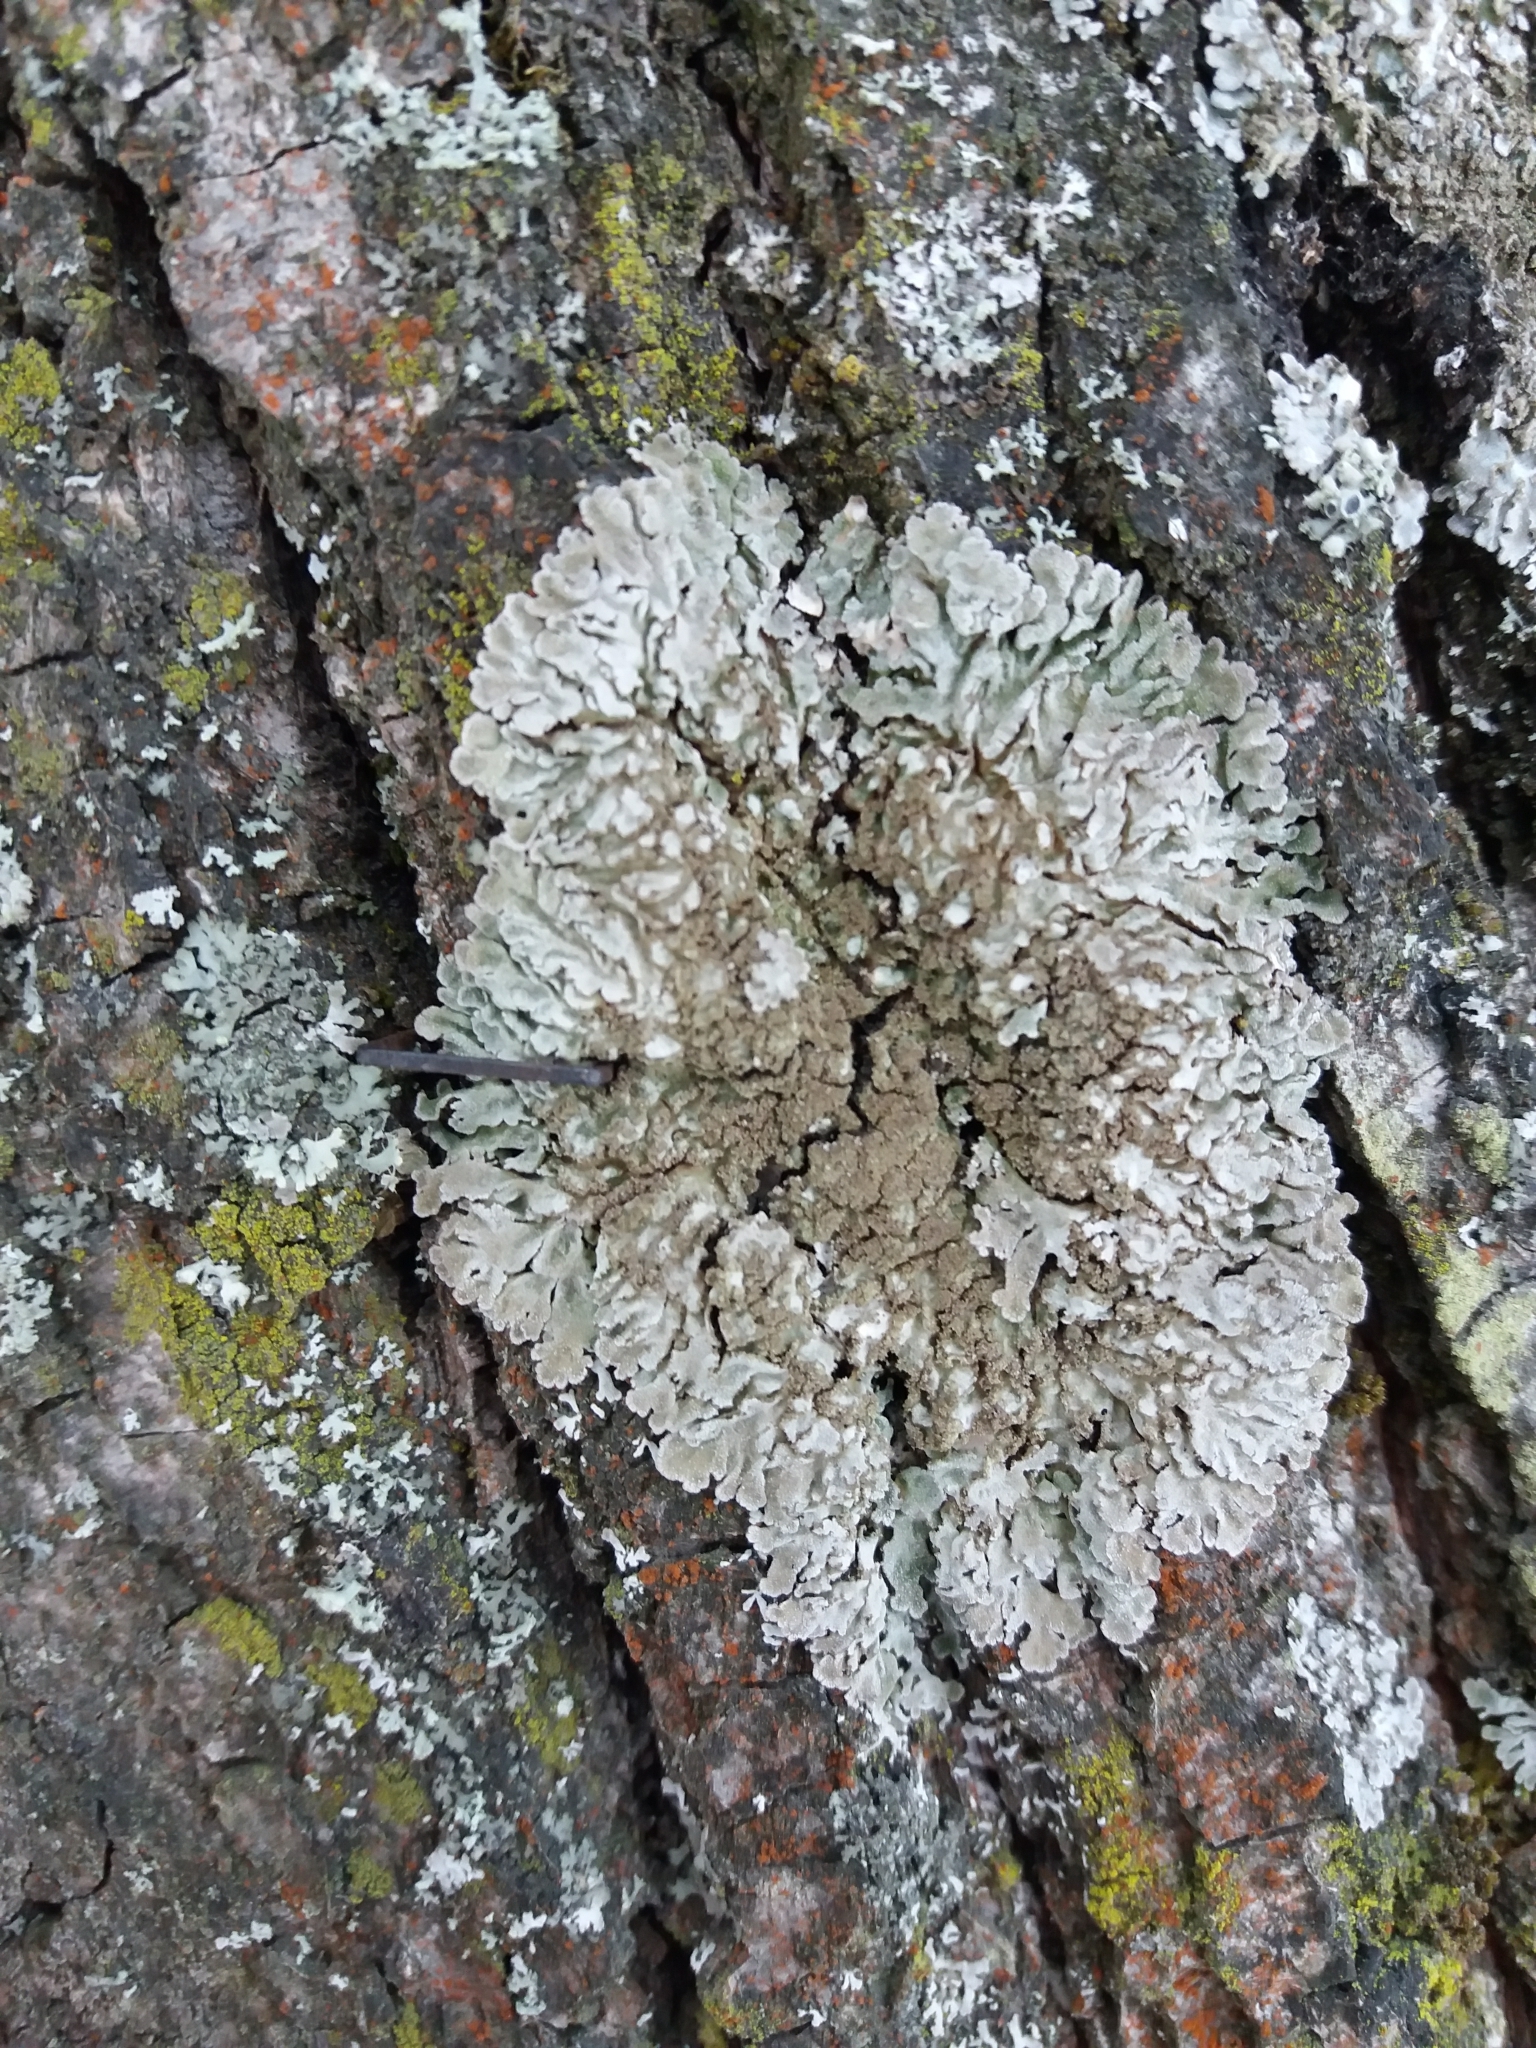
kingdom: Fungi
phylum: Ascomycota
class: Lecanoromycetes
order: Caliciales
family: Physciaceae
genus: Physconia
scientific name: Physconia
